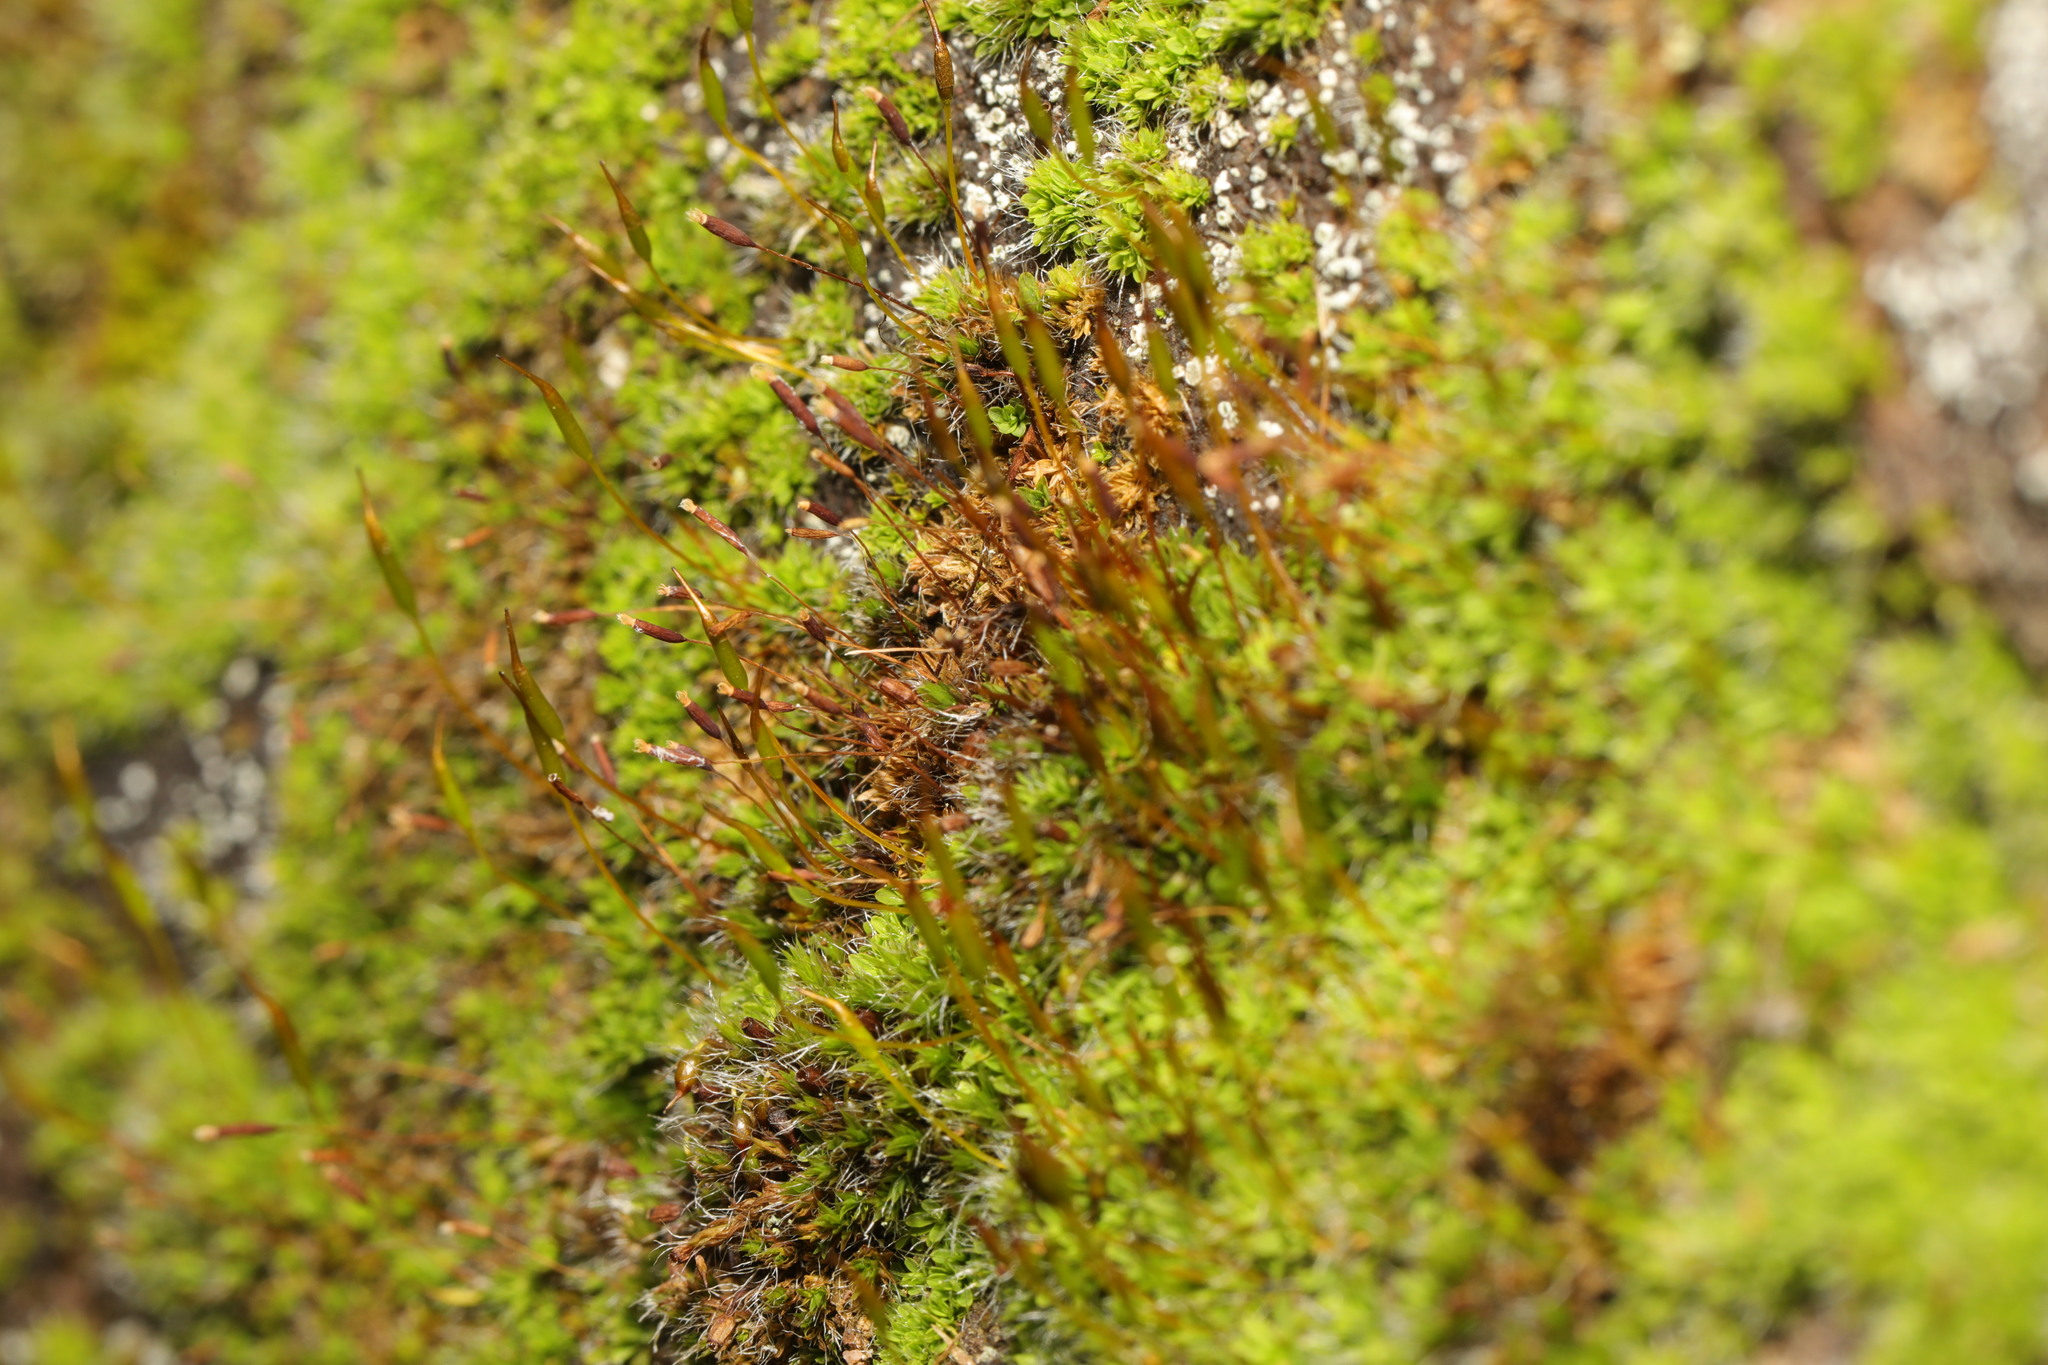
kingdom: Plantae
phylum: Bryophyta
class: Bryopsida
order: Pottiales
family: Pottiaceae
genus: Tortula
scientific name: Tortula muralis
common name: Wall screw-moss
